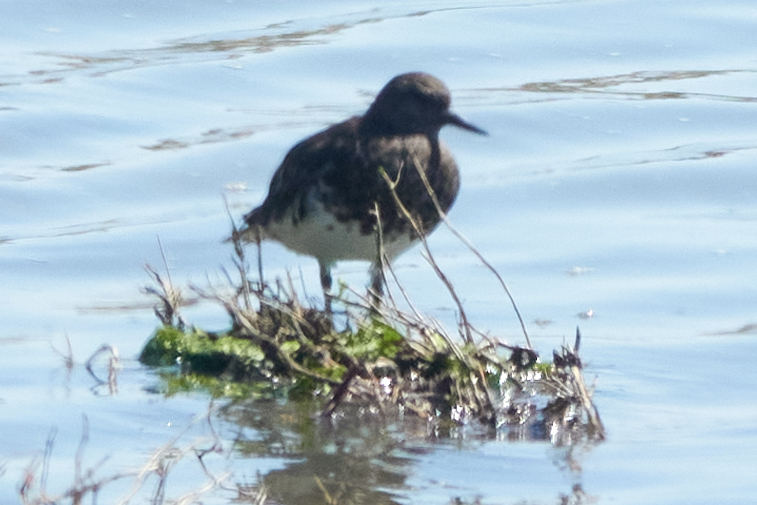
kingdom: Animalia
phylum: Chordata
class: Aves
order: Charadriiformes
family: Scolopacidae
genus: Arenaria
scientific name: Arenaria melanocephala
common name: Black turnstone
